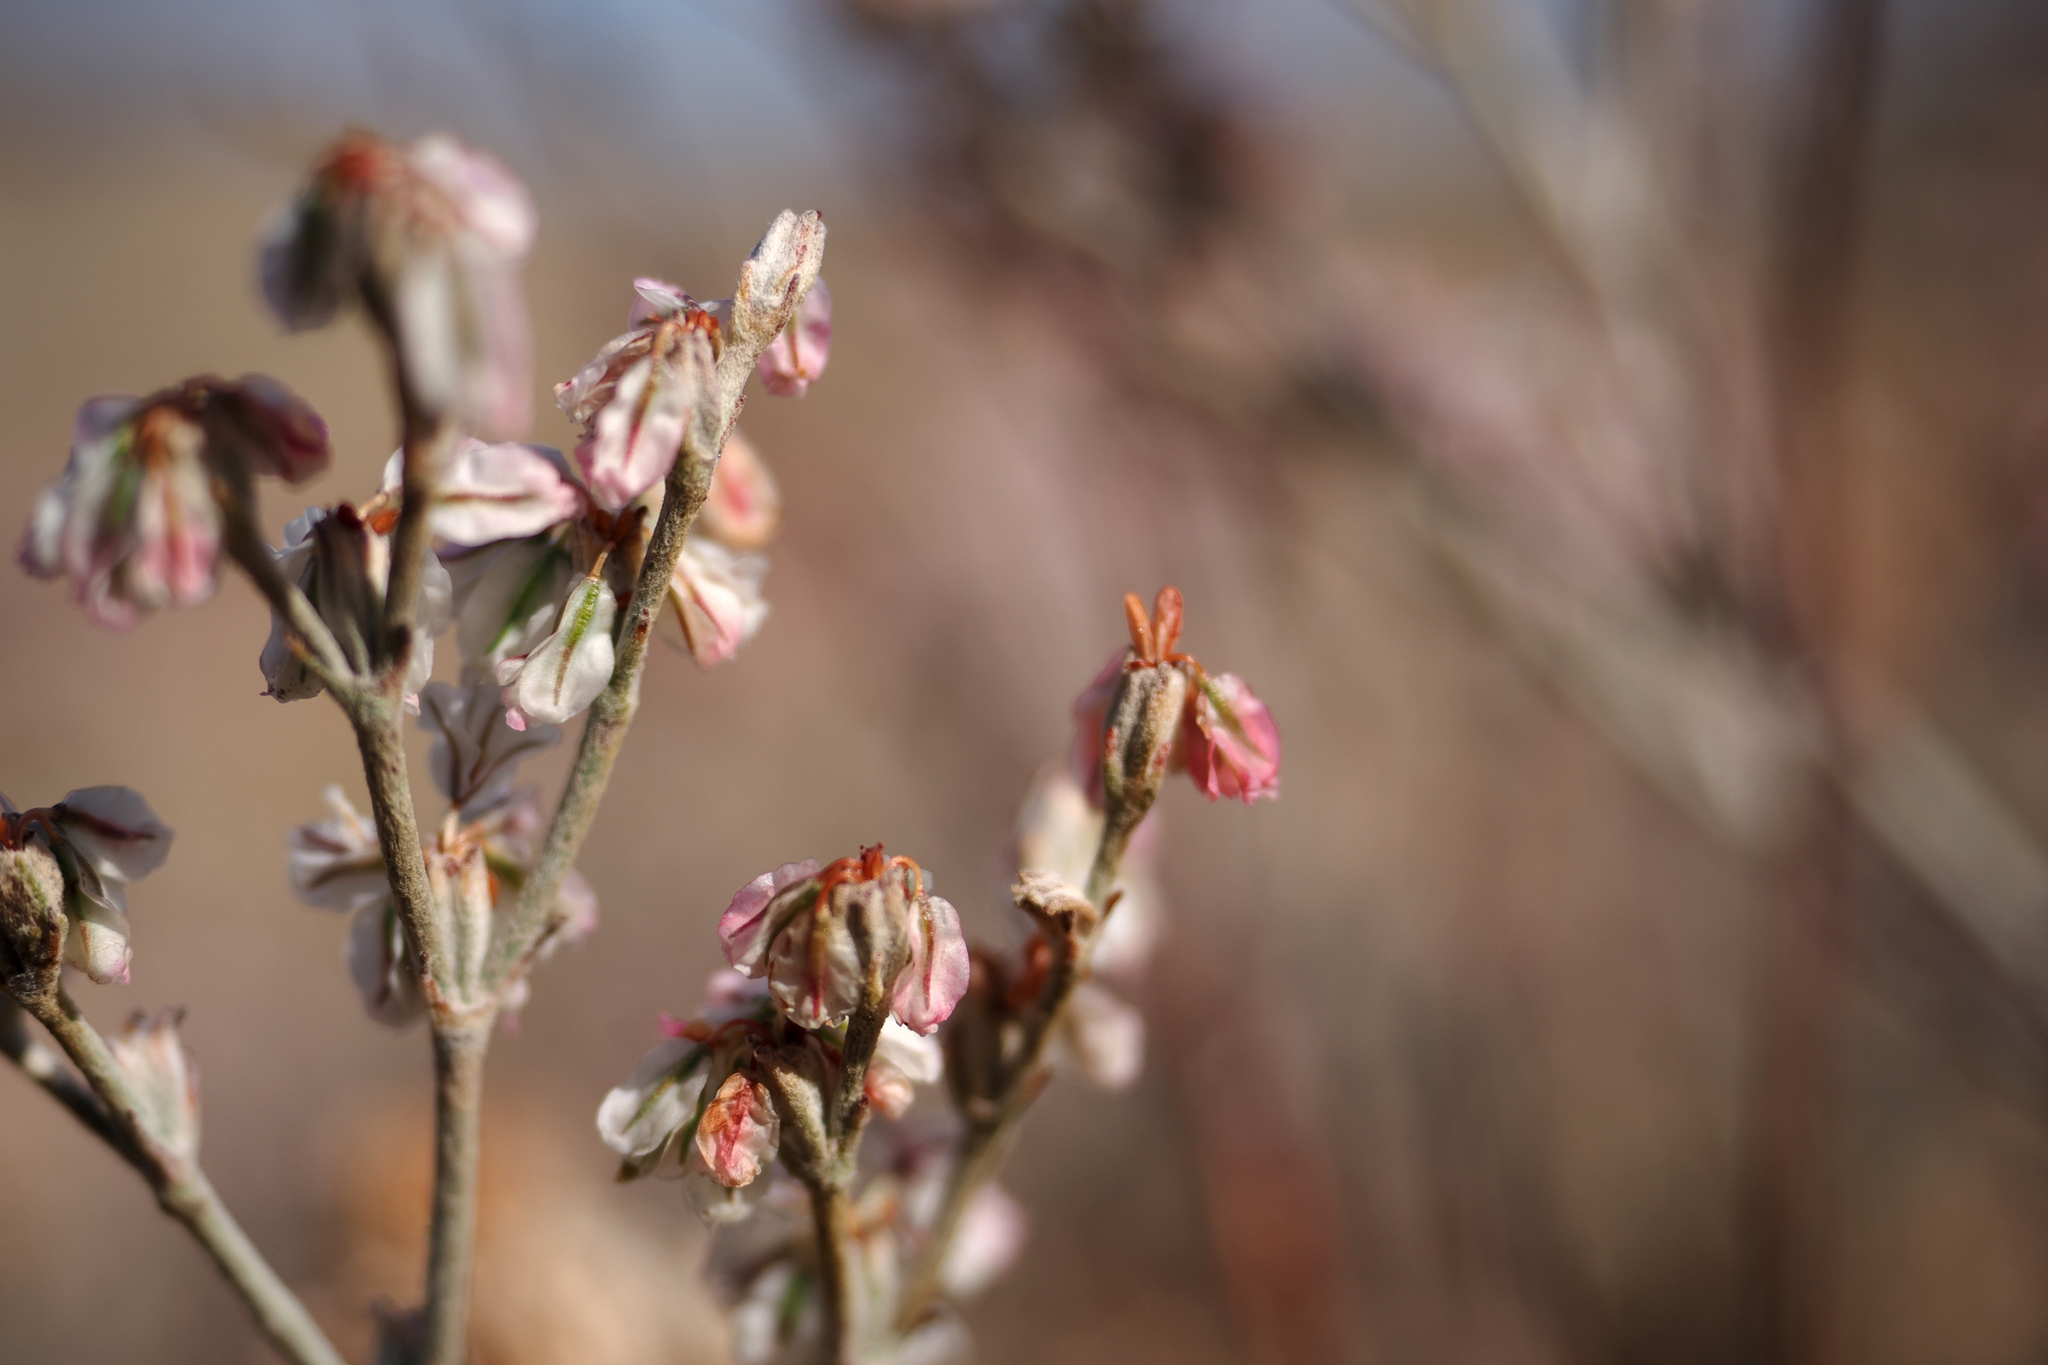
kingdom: Plantae
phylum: Tracheophyta
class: Magnoliopsida
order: Caryophyllales
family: Polygonaceae
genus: Eriogonum
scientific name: Eriogonum niveum
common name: Snow wild buckwheat
